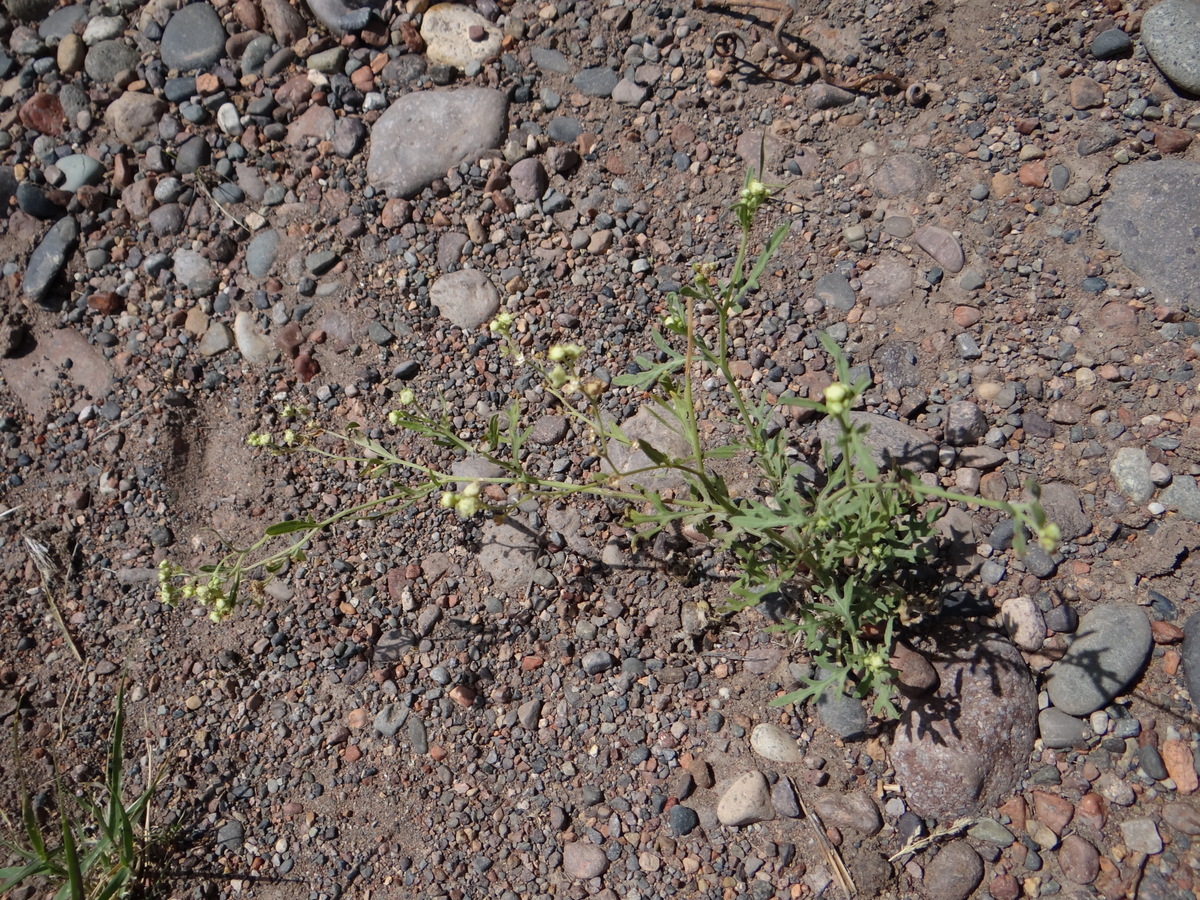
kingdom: Plantae
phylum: Tracheophyta
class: Magnoliopsida
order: Asterales
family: Asteraceae
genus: Parthenium
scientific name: Parthenium hysterophorus
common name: Santa maria feverfew
